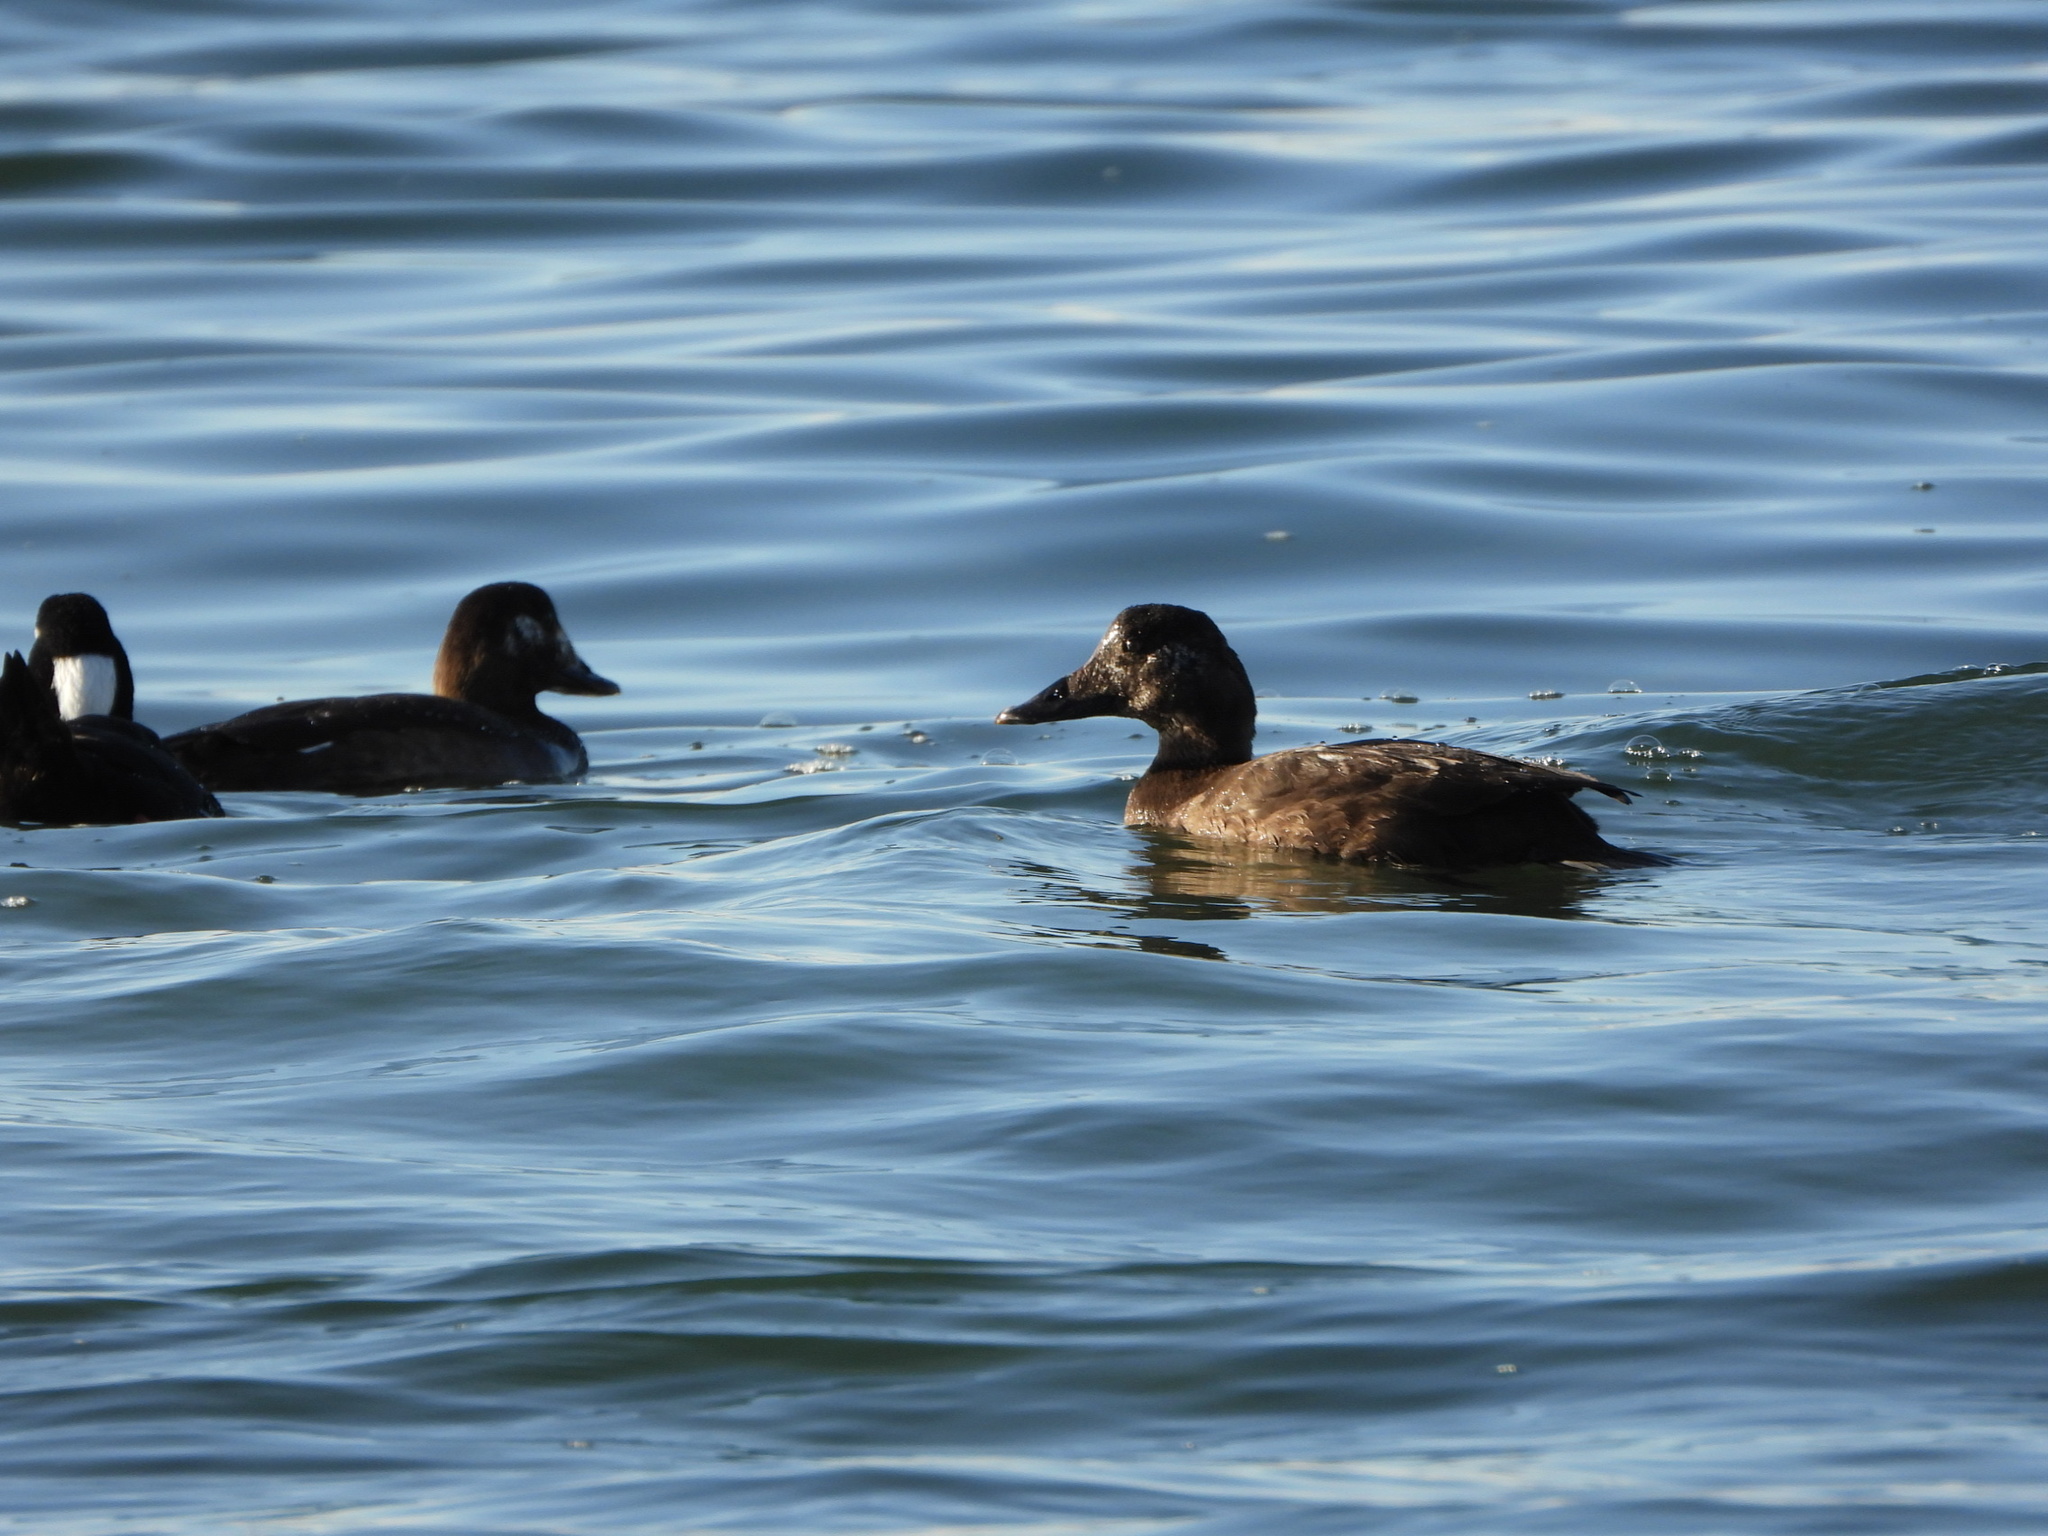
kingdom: Animalia
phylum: Chordata
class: Aves
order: Anseriformes
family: Anatidae
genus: Melanitta
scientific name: Melanitta deglandi
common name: White-winged scoter
